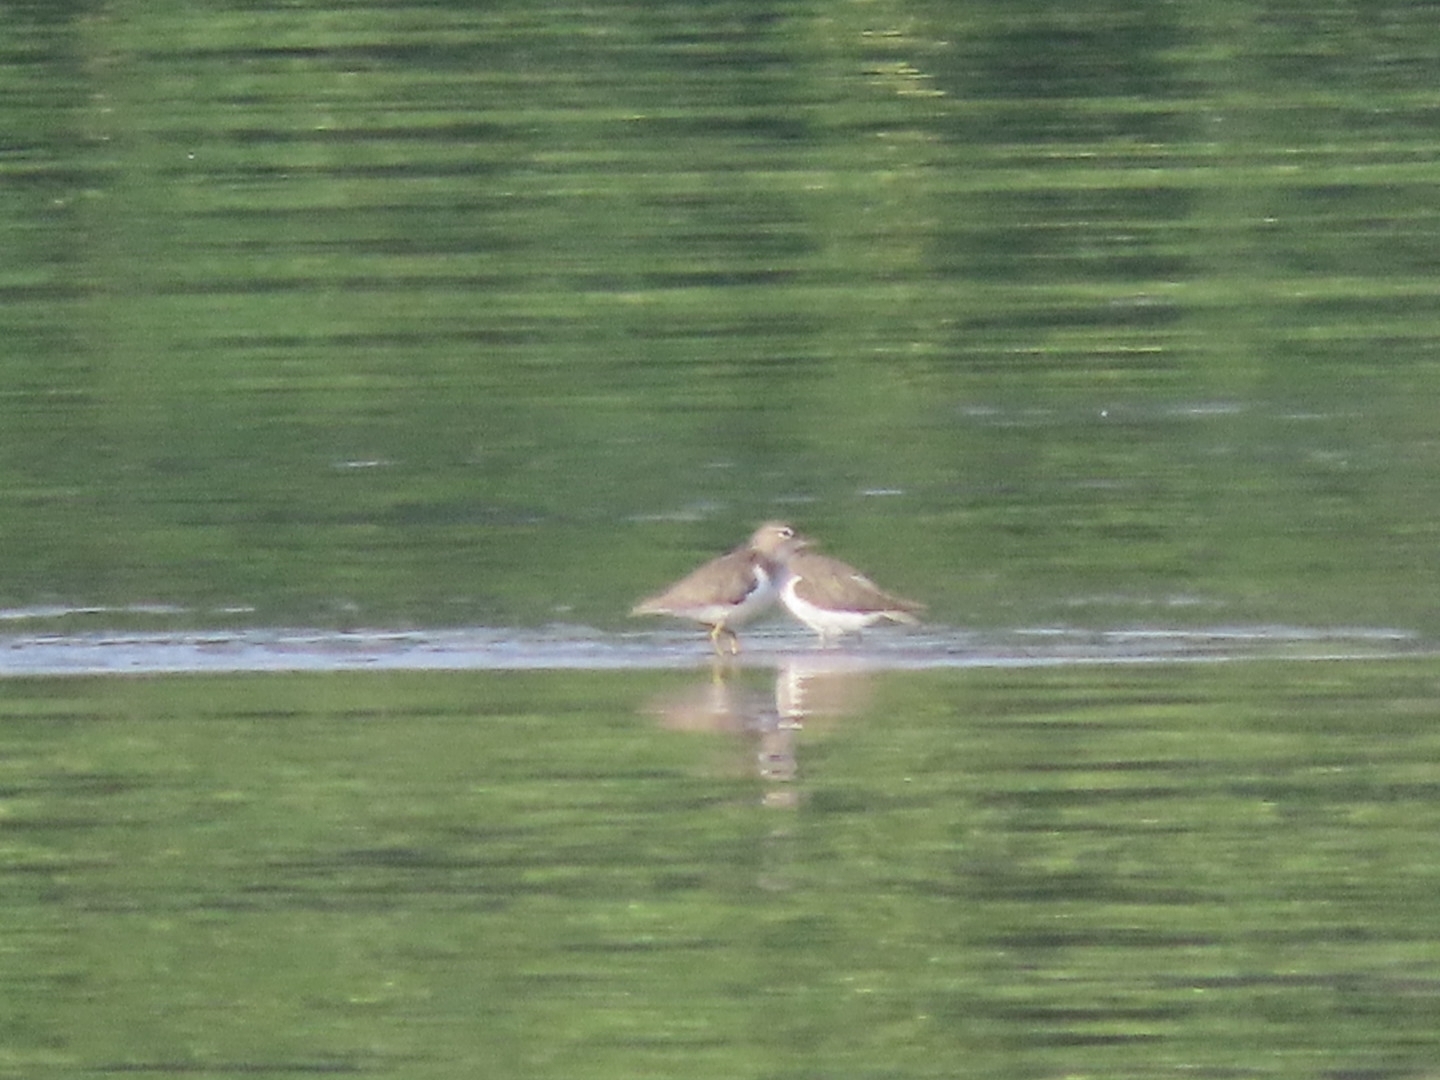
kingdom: Animalia
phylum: Chordata
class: Aves
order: Charadriiformes
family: Scolopacidae
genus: Actitis
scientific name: Actitis macularius
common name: Spotted sandpiper
